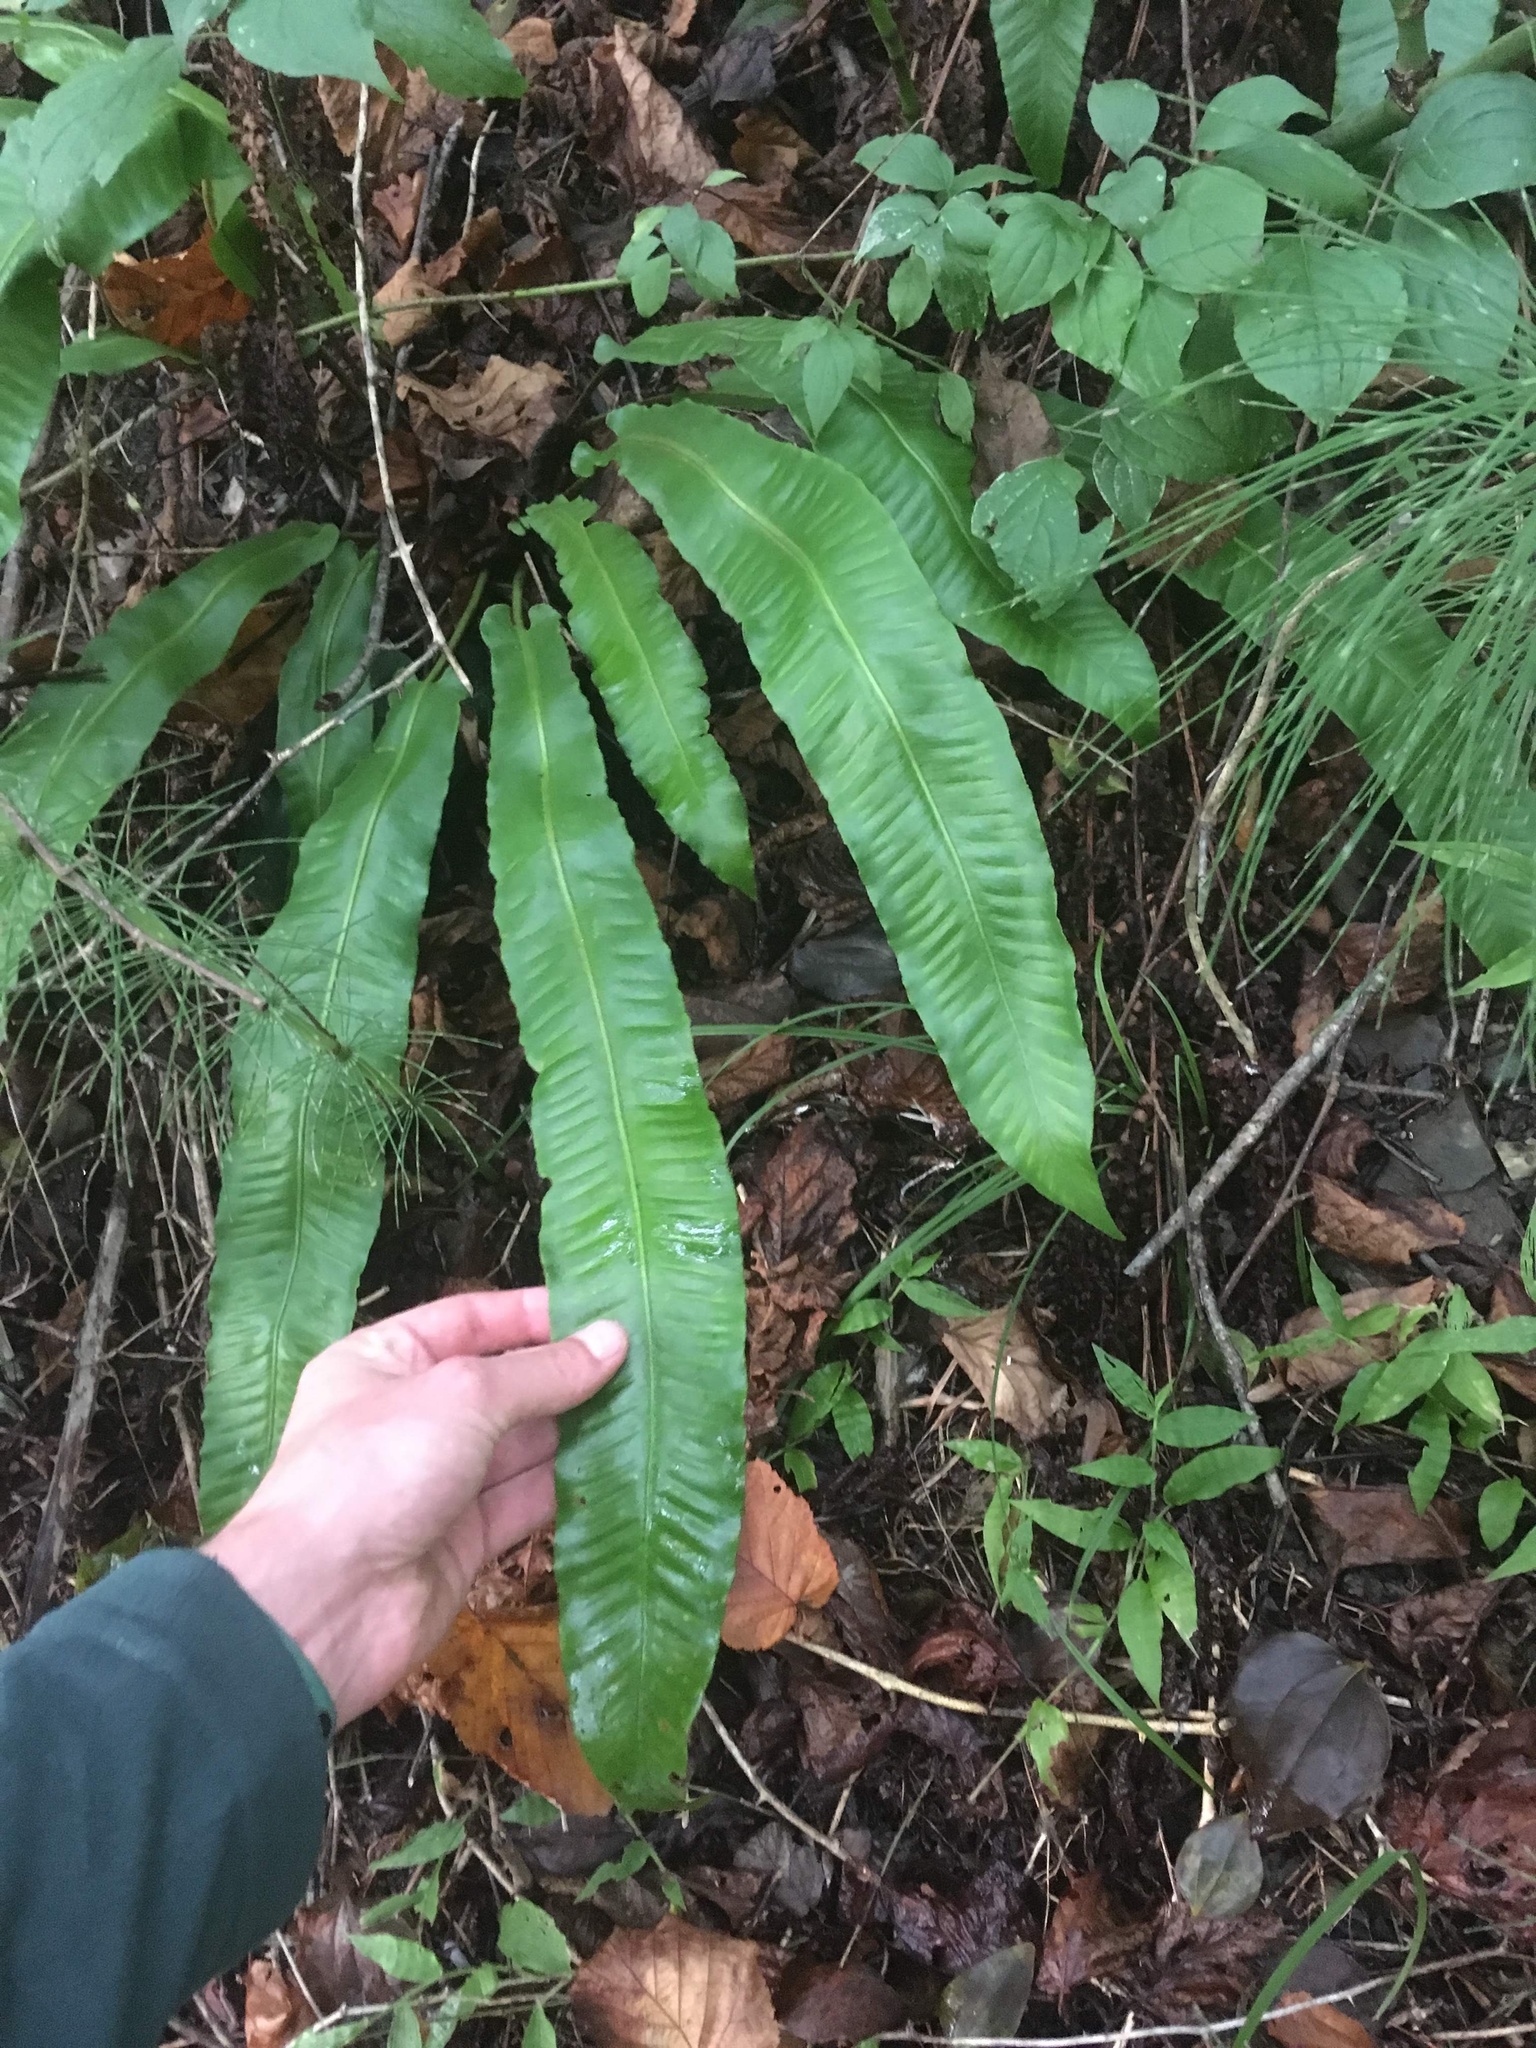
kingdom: Plantae
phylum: Tracheophyta
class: Polypodiopsida
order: Polypodiales
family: Aspleniaceae
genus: Asplenium
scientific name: Asplenium scolopendrium
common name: Hart's-tongue fern
